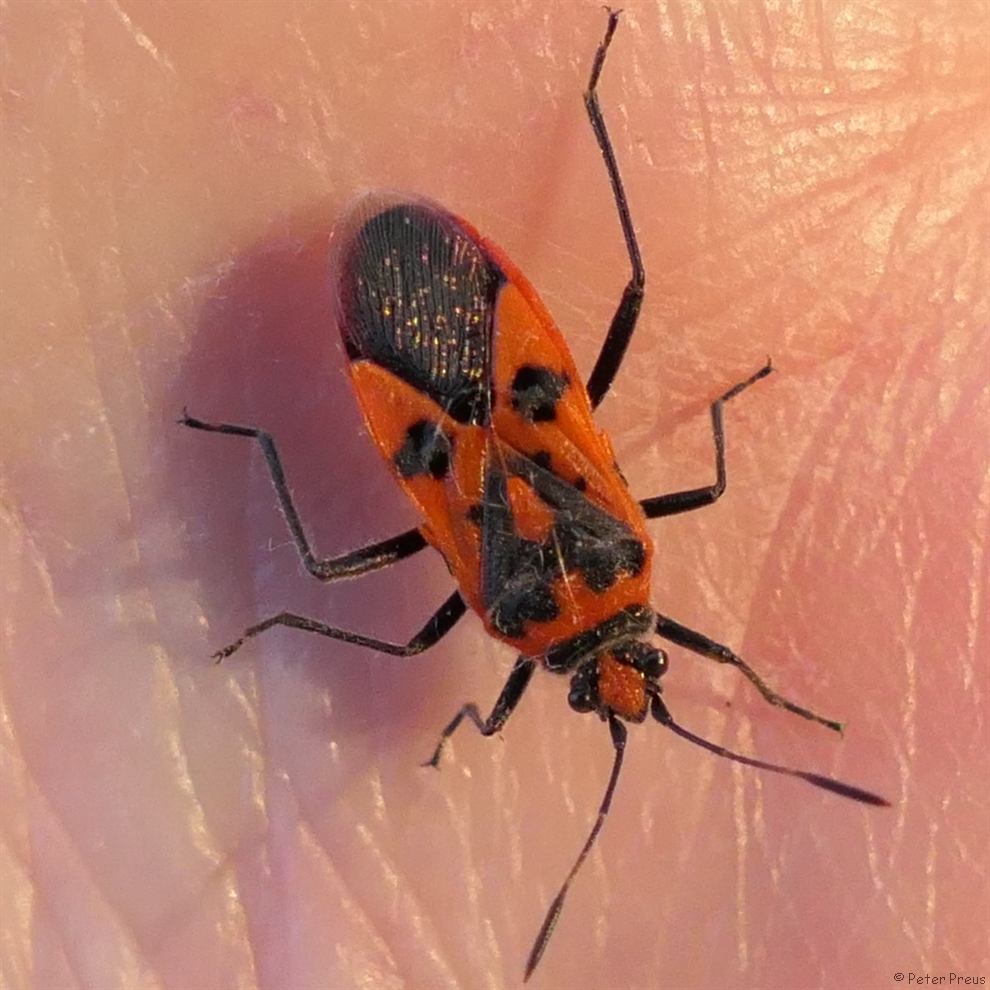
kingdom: Animalia
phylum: Arthropoda
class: Insecta
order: Hemiptera
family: Rhopalidae
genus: Corizus
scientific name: Corizus hyoscyami
